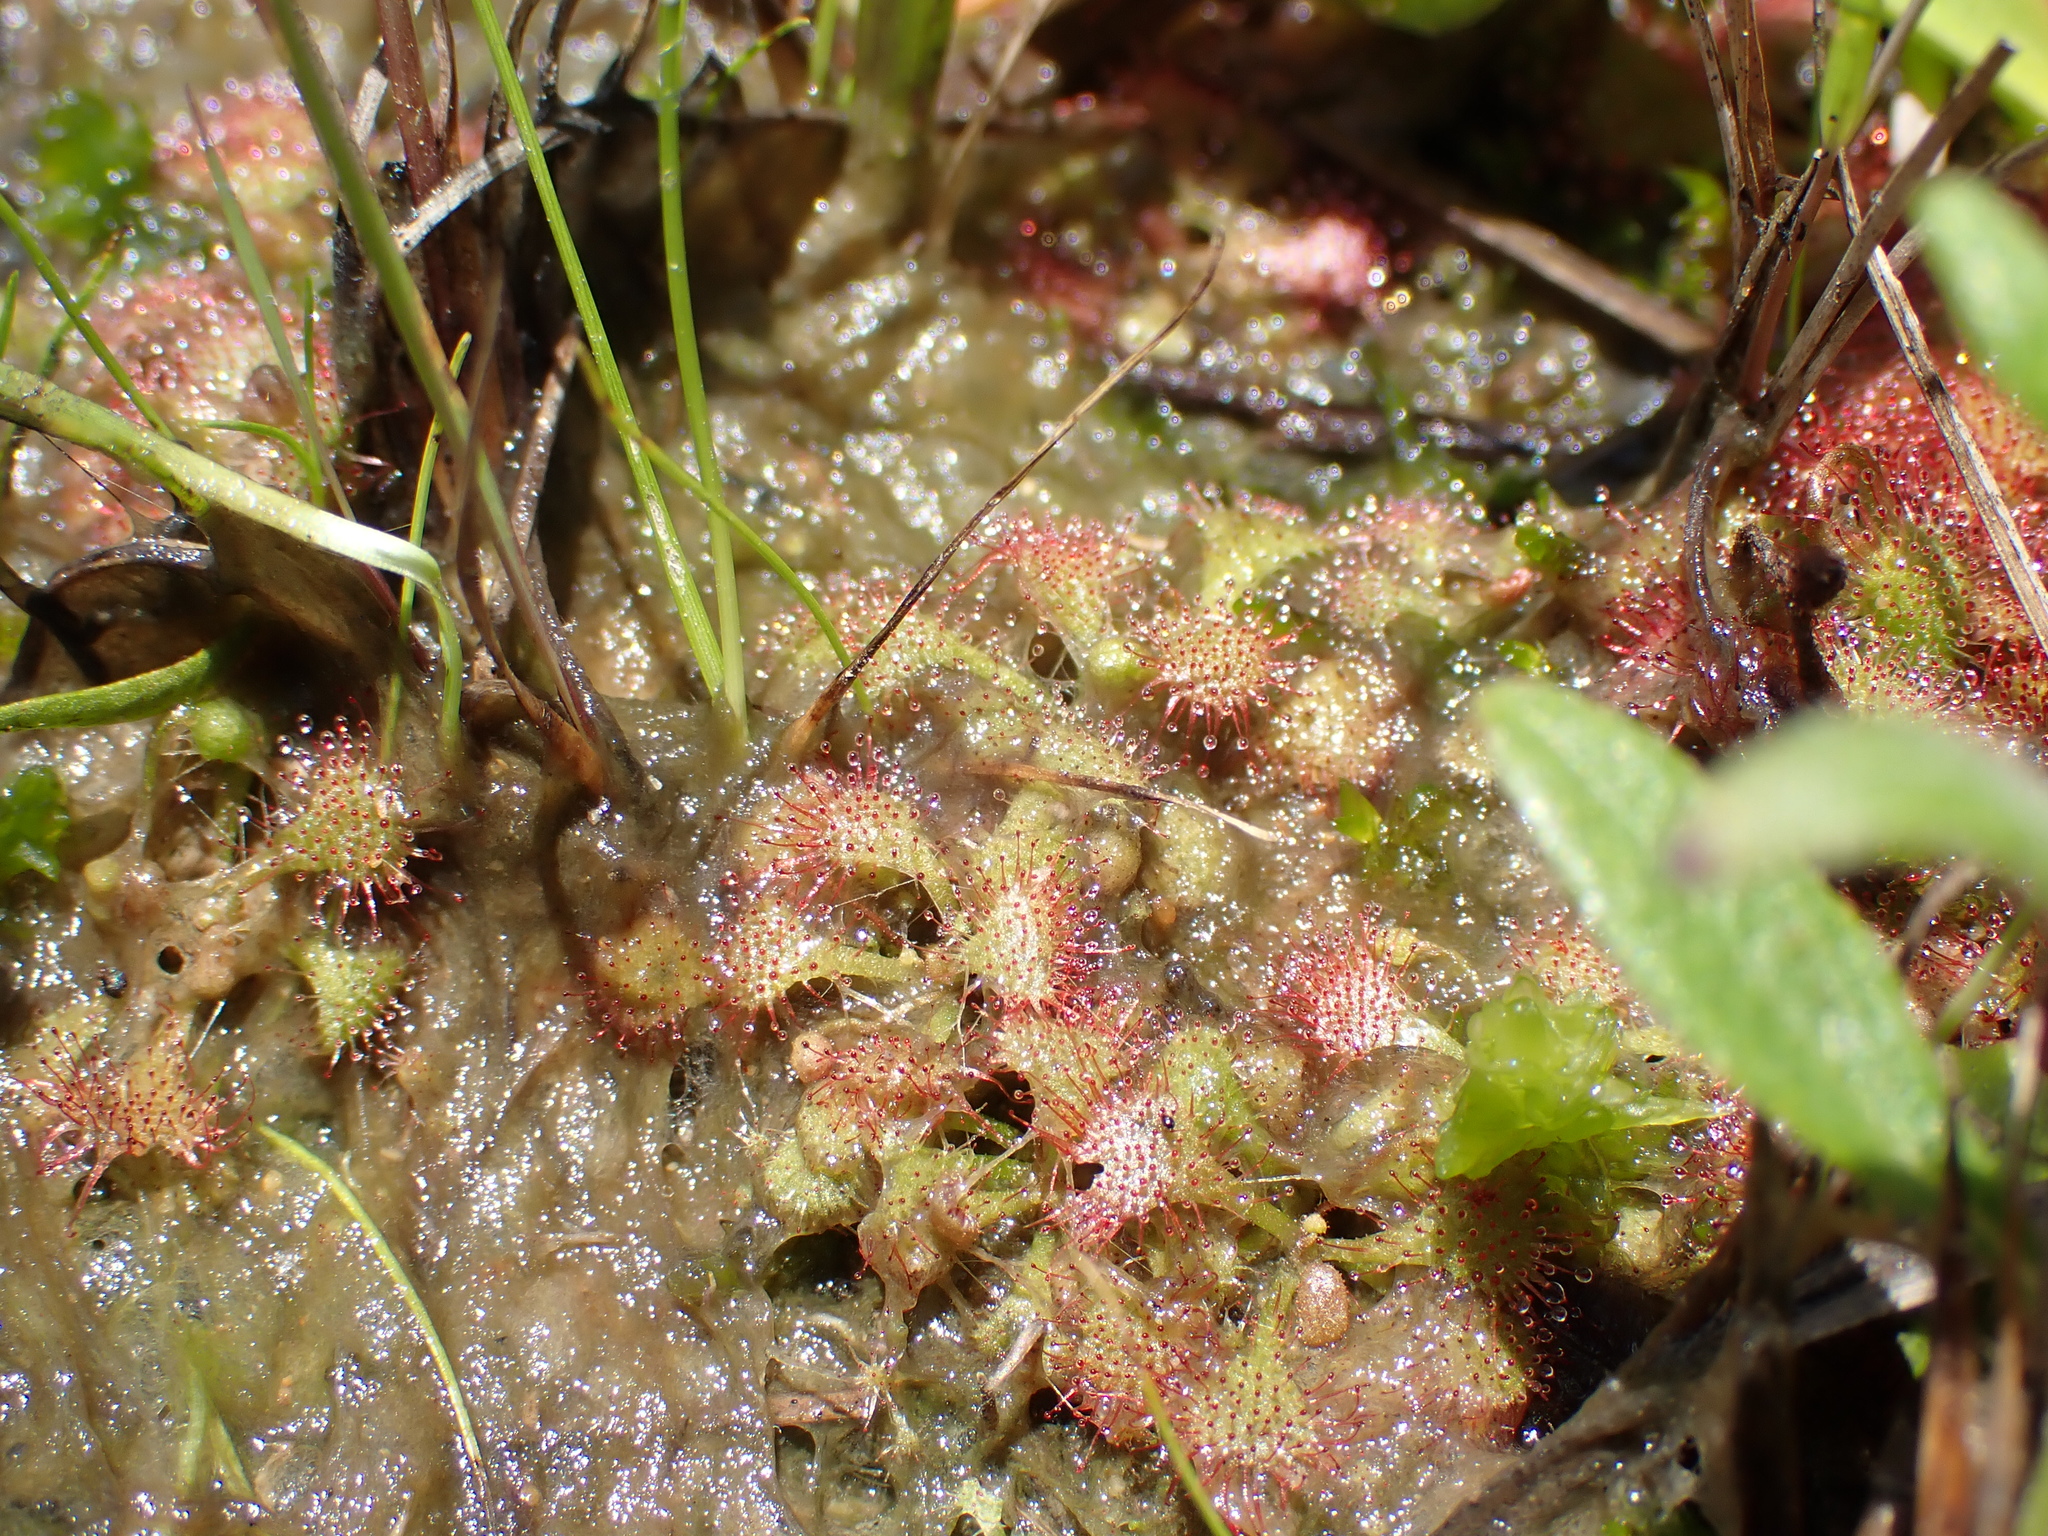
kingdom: Plantae
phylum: Tracheophyta
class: Magnoliopsida
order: Caryophyllales
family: Droseraceae
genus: Drosera
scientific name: Drosera brevifolia
